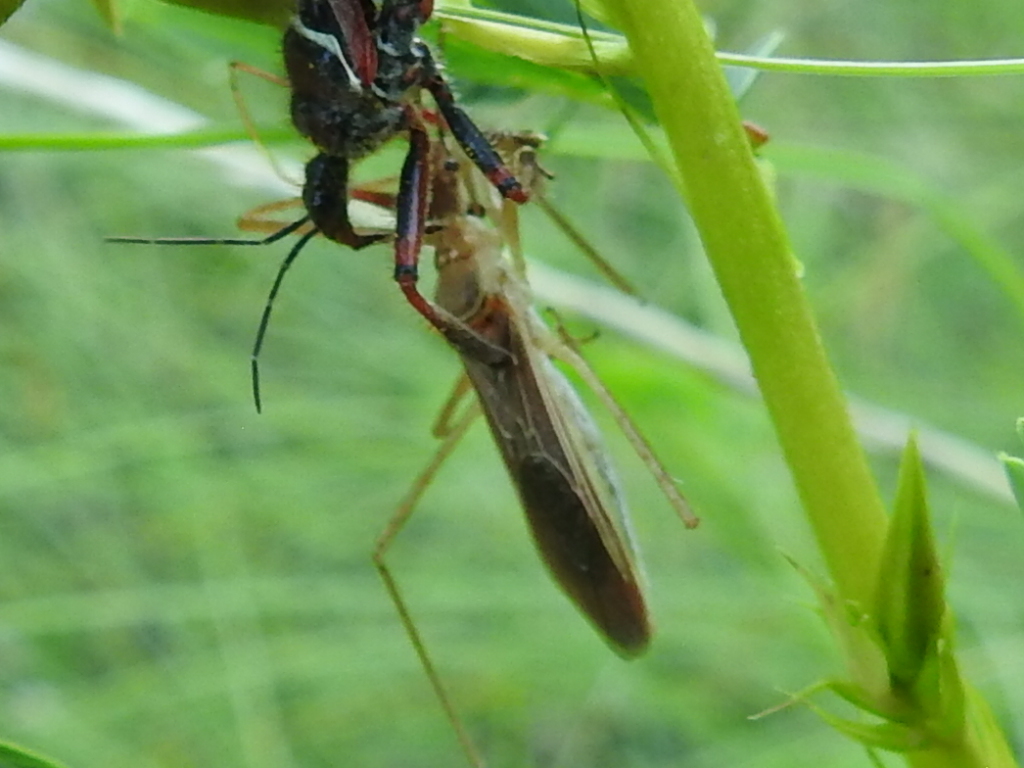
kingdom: Animalia
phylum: Arthropoda
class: Insecta
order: Hemiptera
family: Reduviidae
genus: Zelus
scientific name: Zelus renardii
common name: Assassin bug
